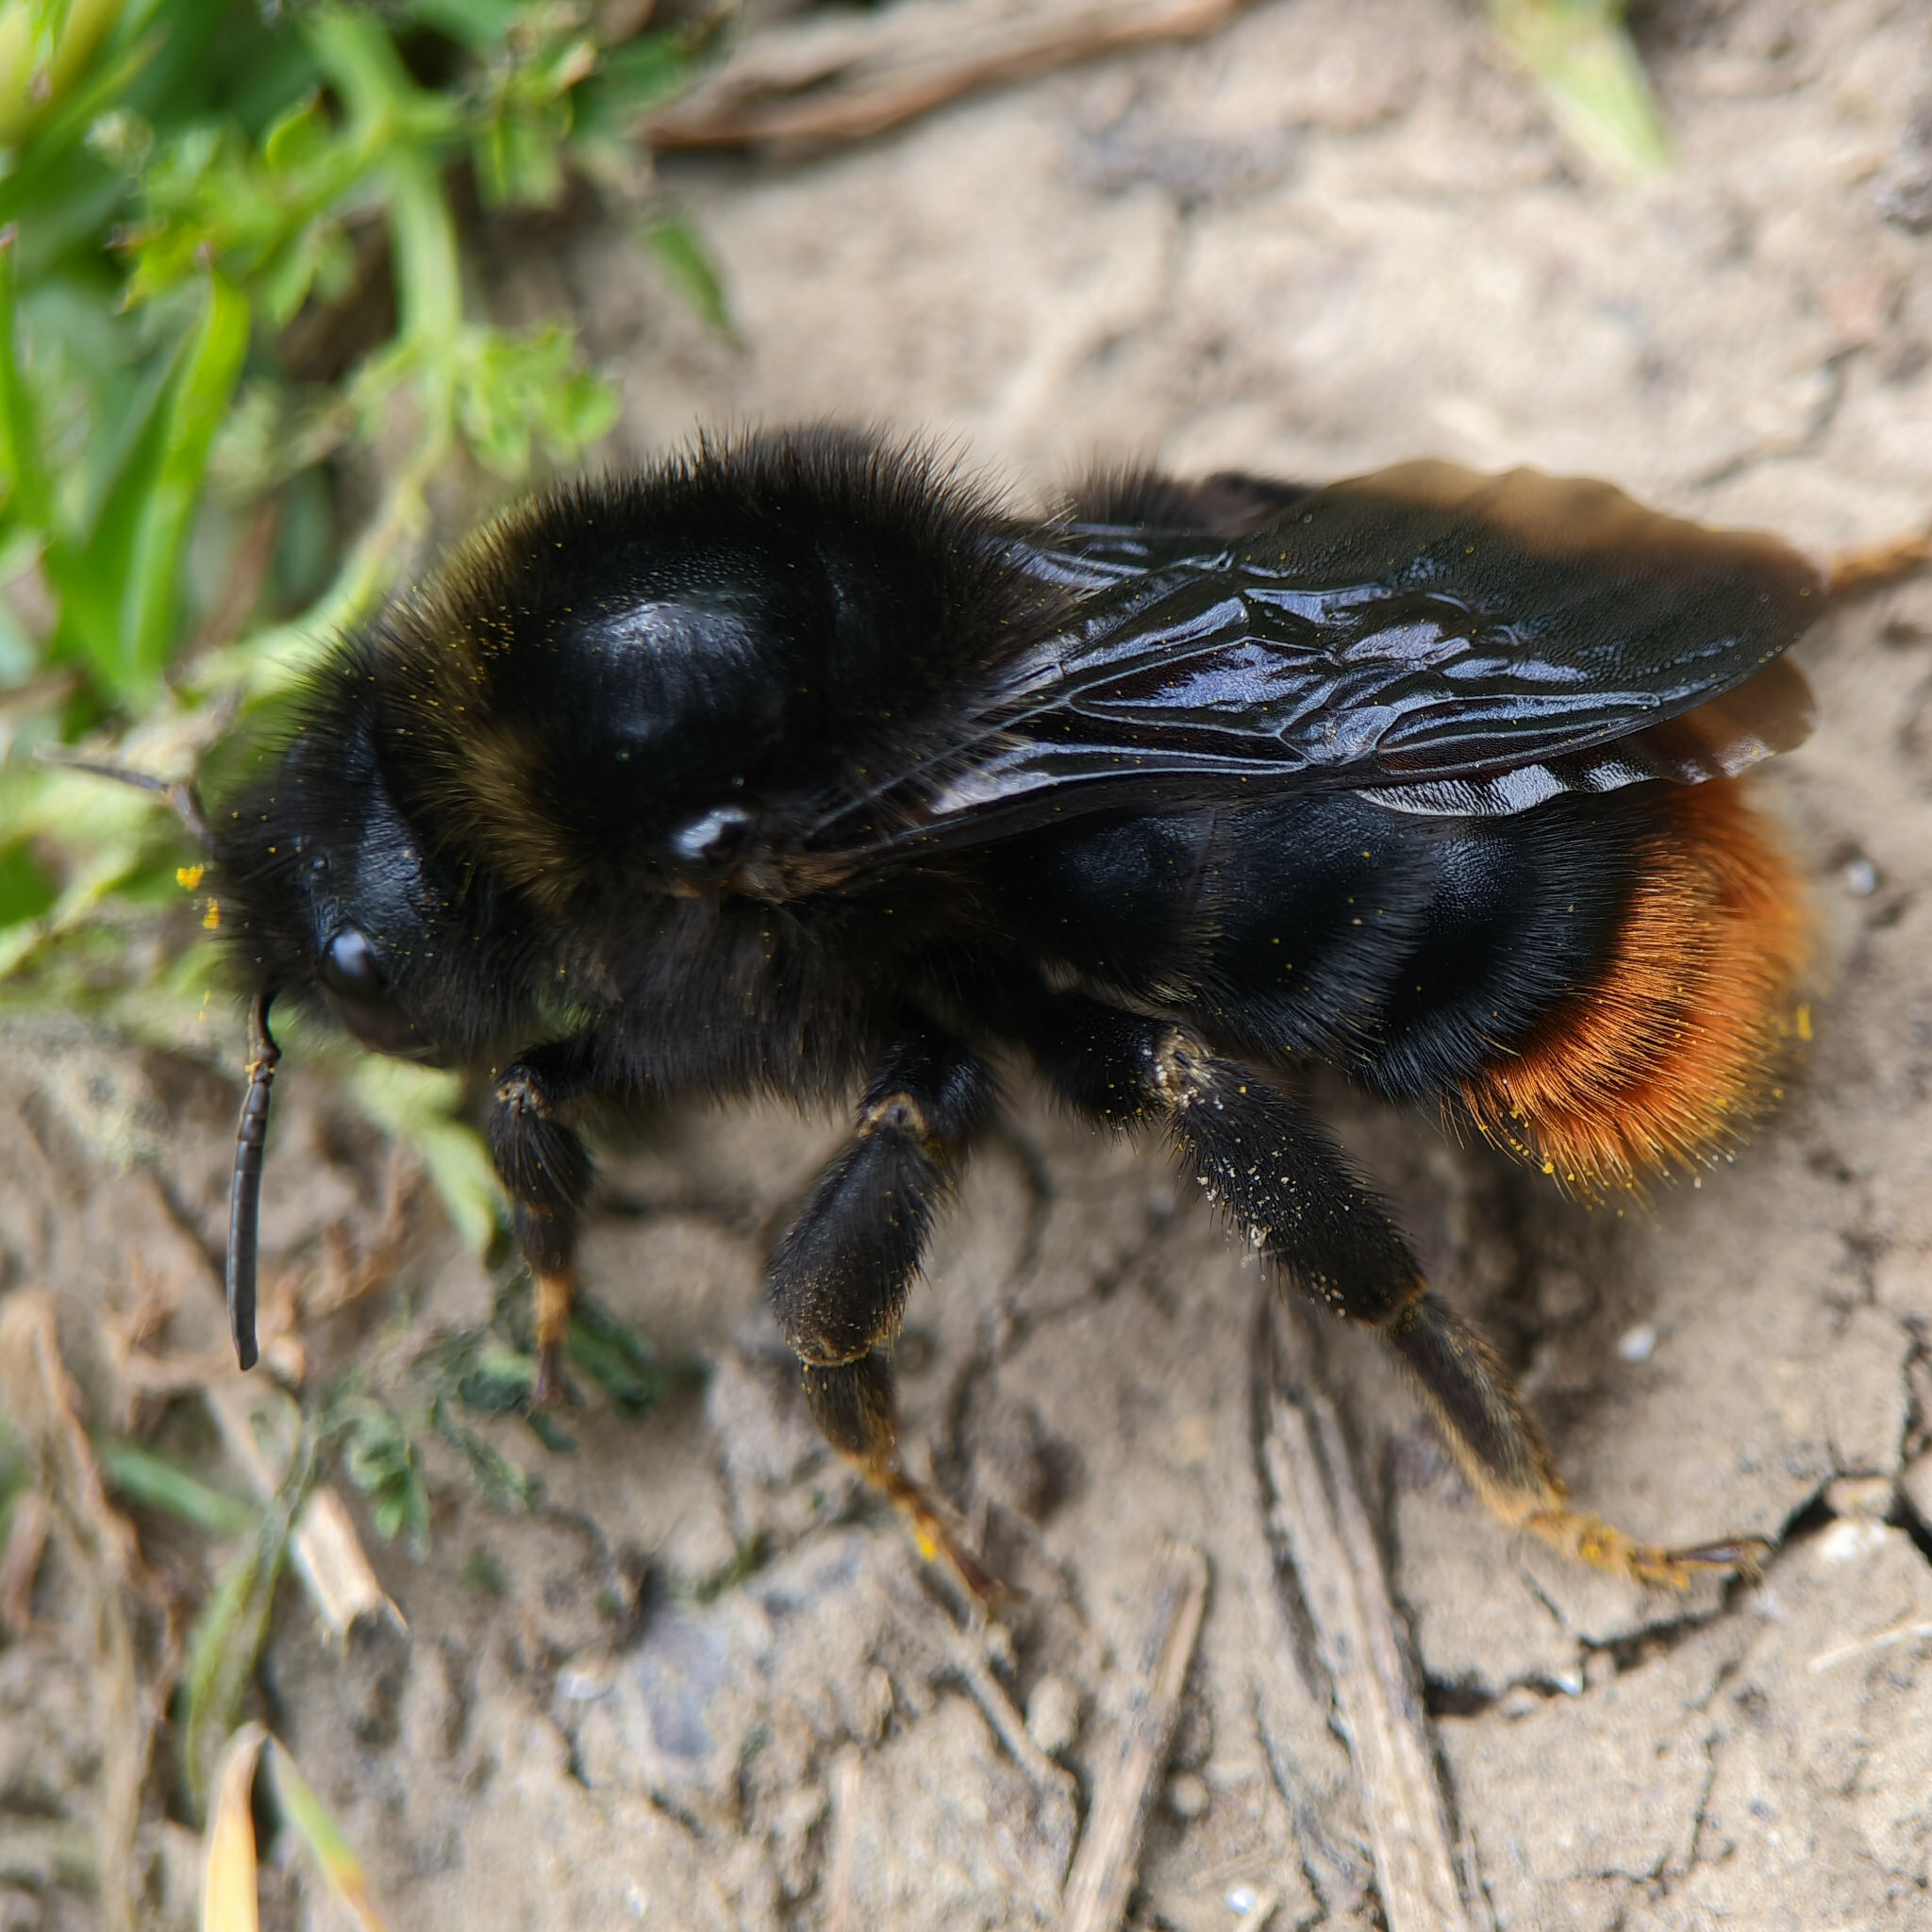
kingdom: Animalia
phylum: Arthropoda
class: Insecta
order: Hymenoptera
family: Apidae
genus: Bombus
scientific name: Bombus rupestris
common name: Hill cuckoo-bee
